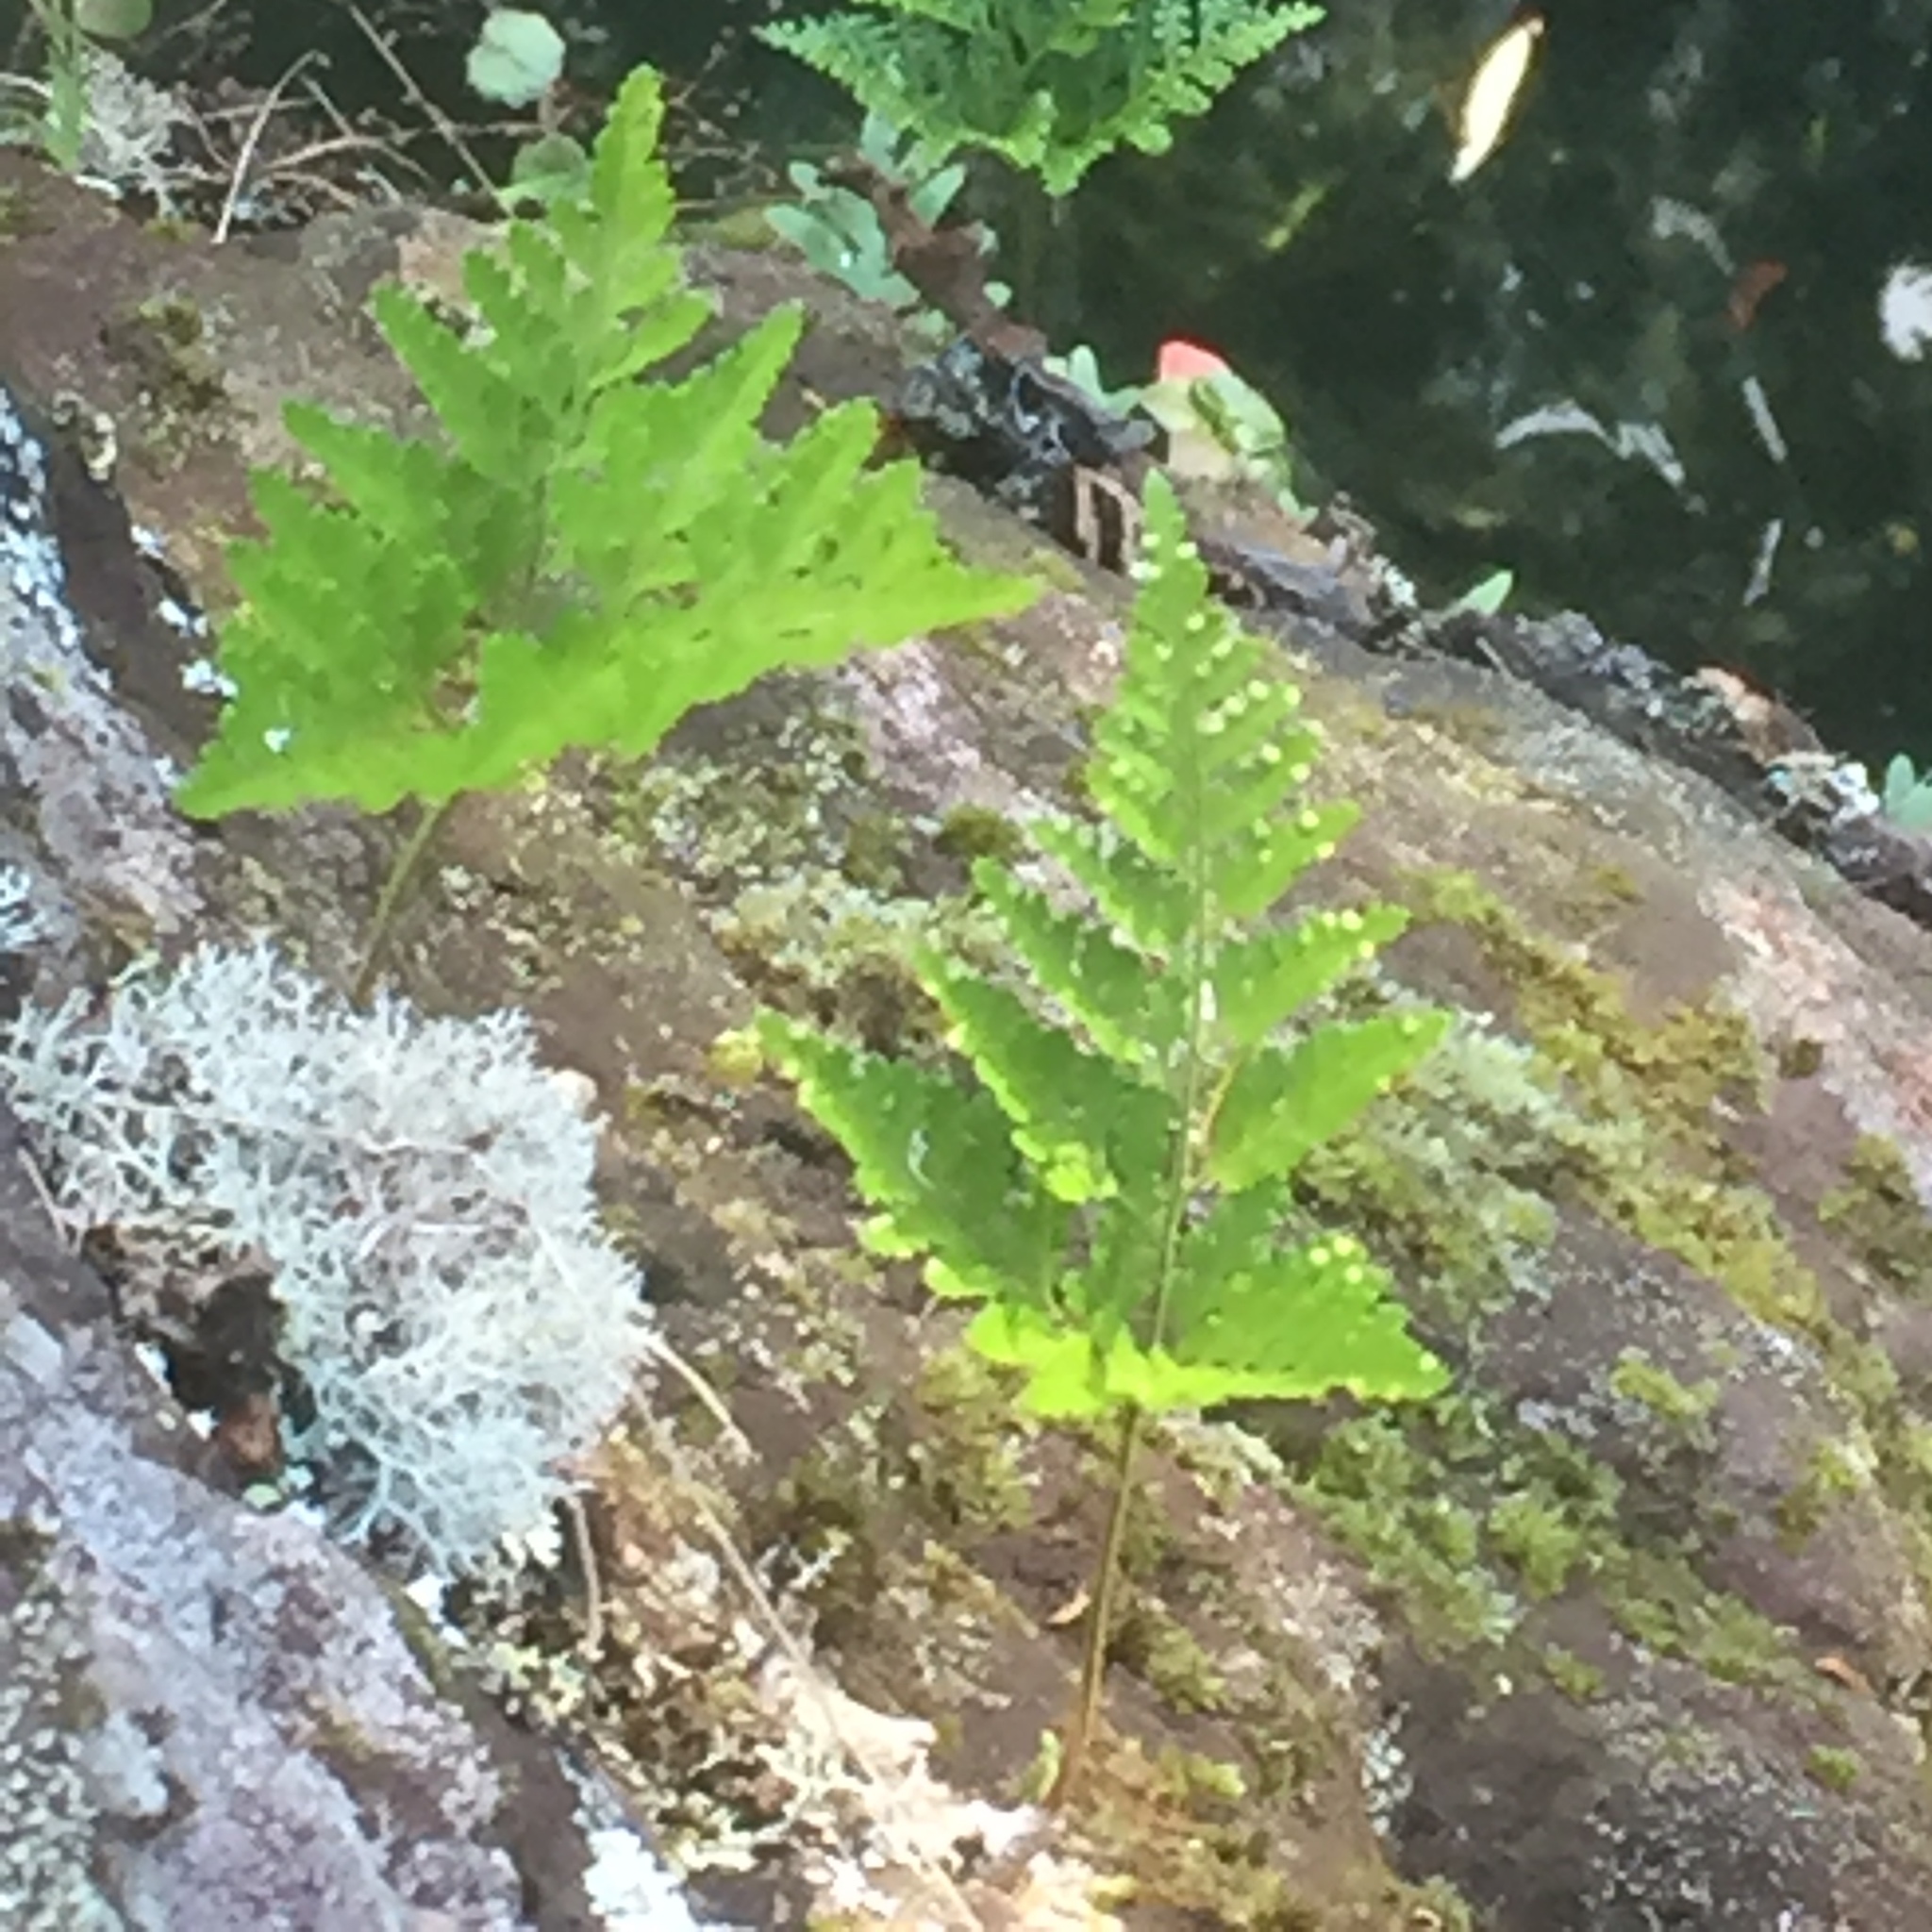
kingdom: Plantae
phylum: Tracheophyta
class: Polypodiopsida
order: Polypodiales
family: Davalliaceae
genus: Davallia
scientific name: Davallia canariensis
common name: Hare's-foot fern
